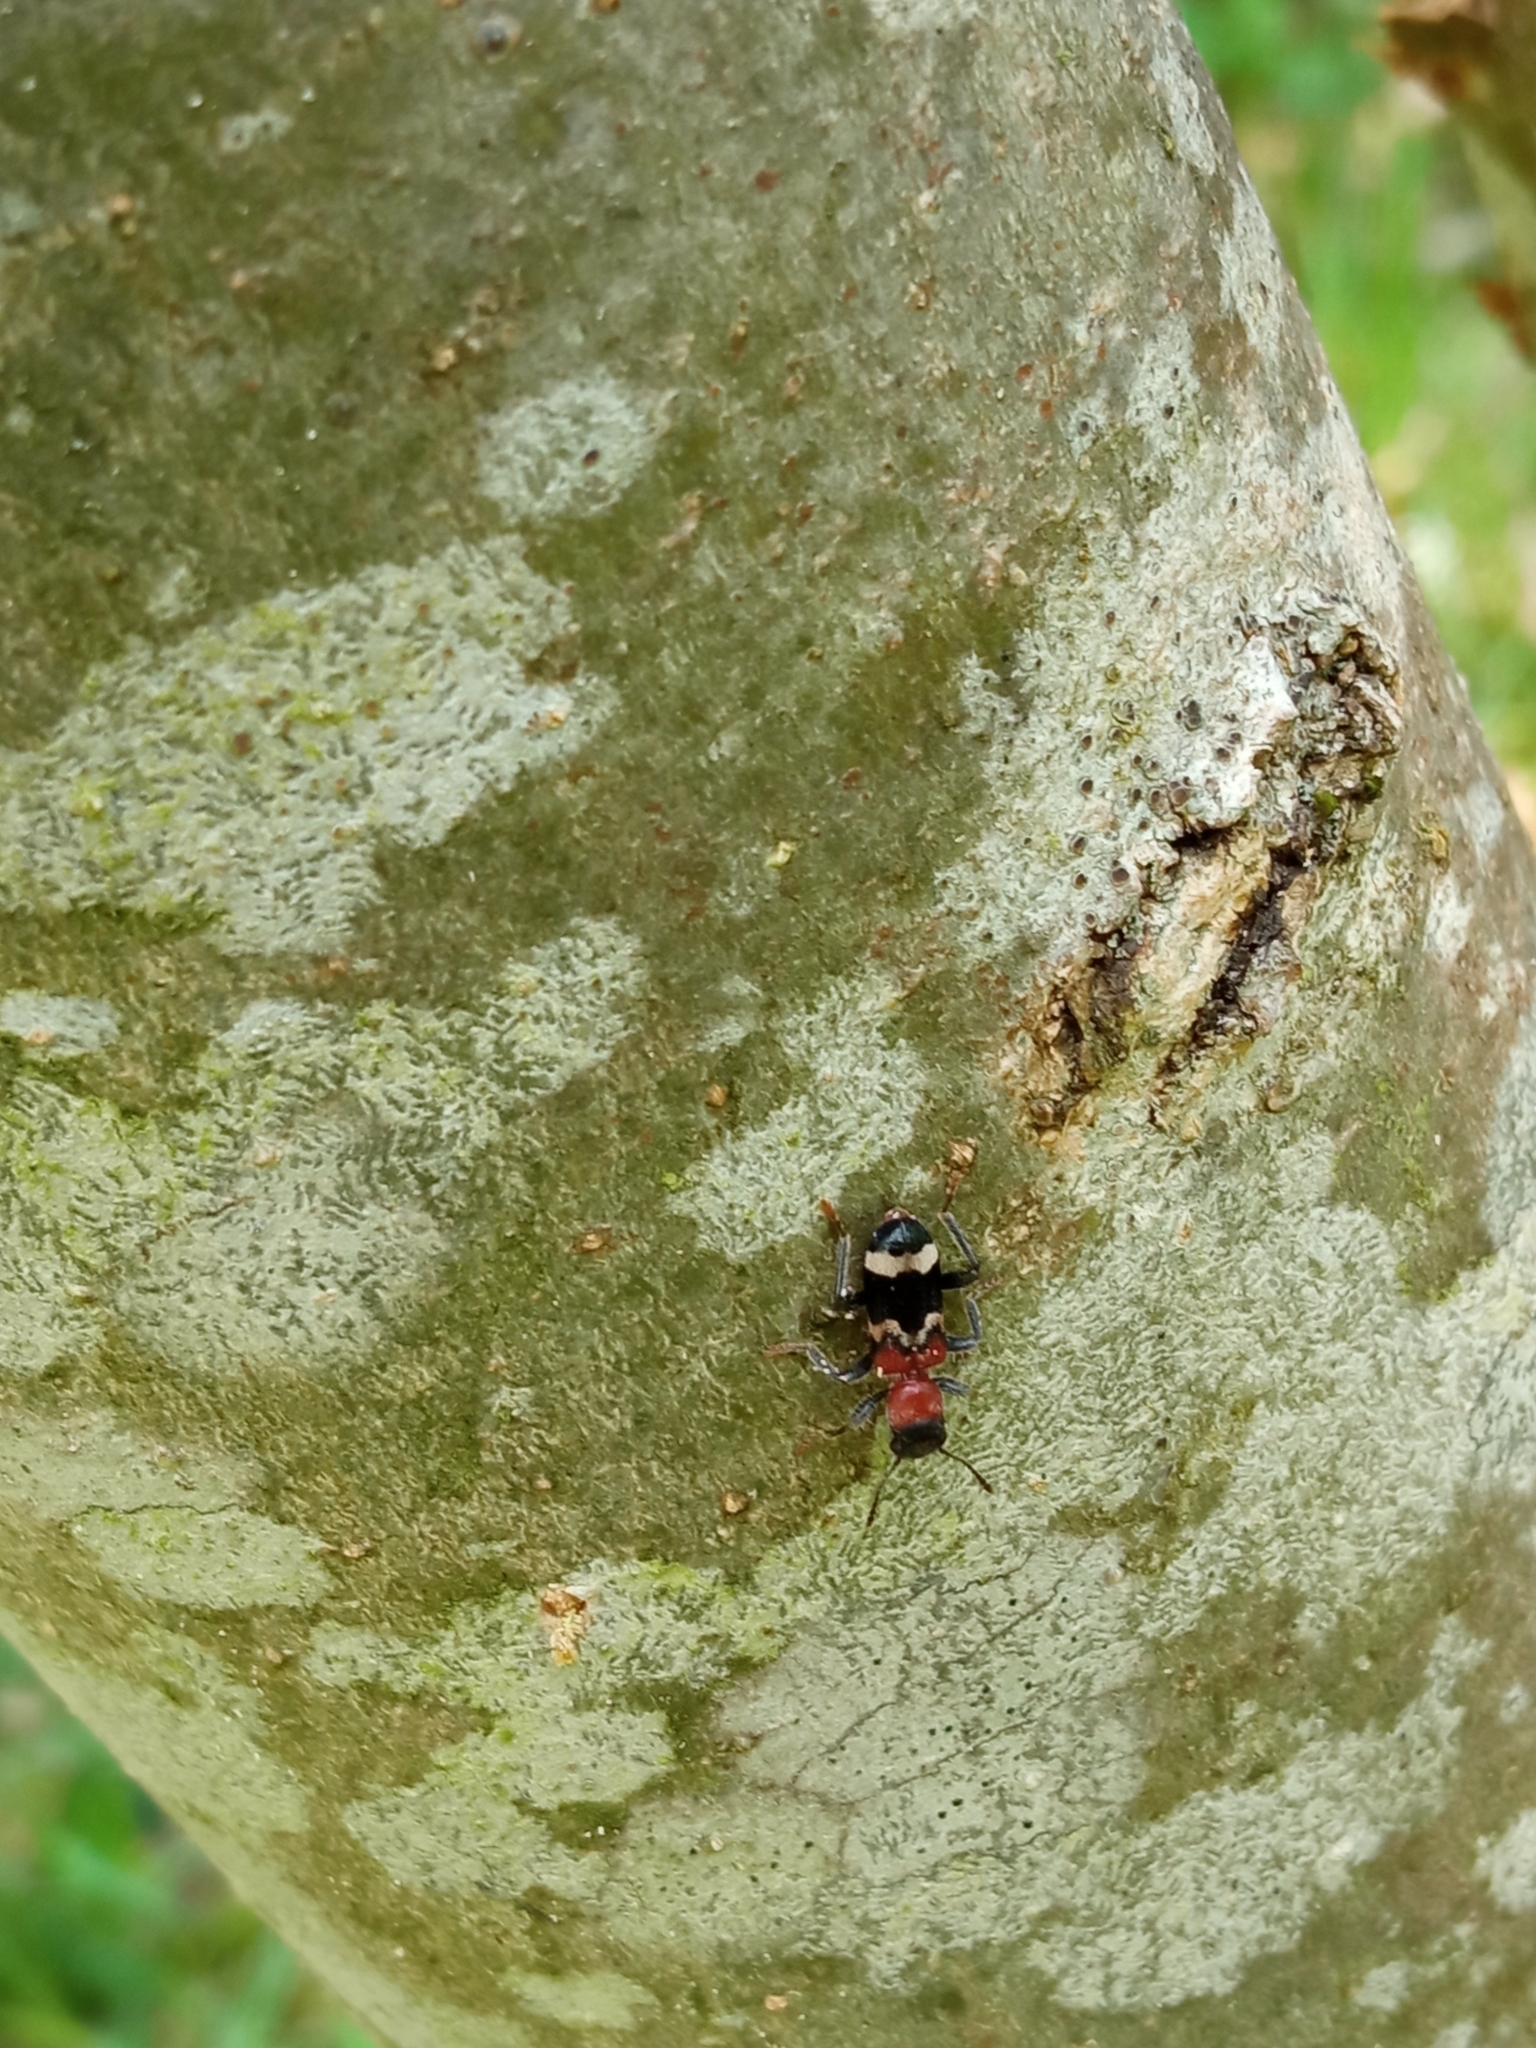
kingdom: Animalia
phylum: Arthropoda
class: Insecta
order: Coleoptera
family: Cleridae
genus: Thanasimus
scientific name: Thanasimus formicarius
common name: Ant beetle
